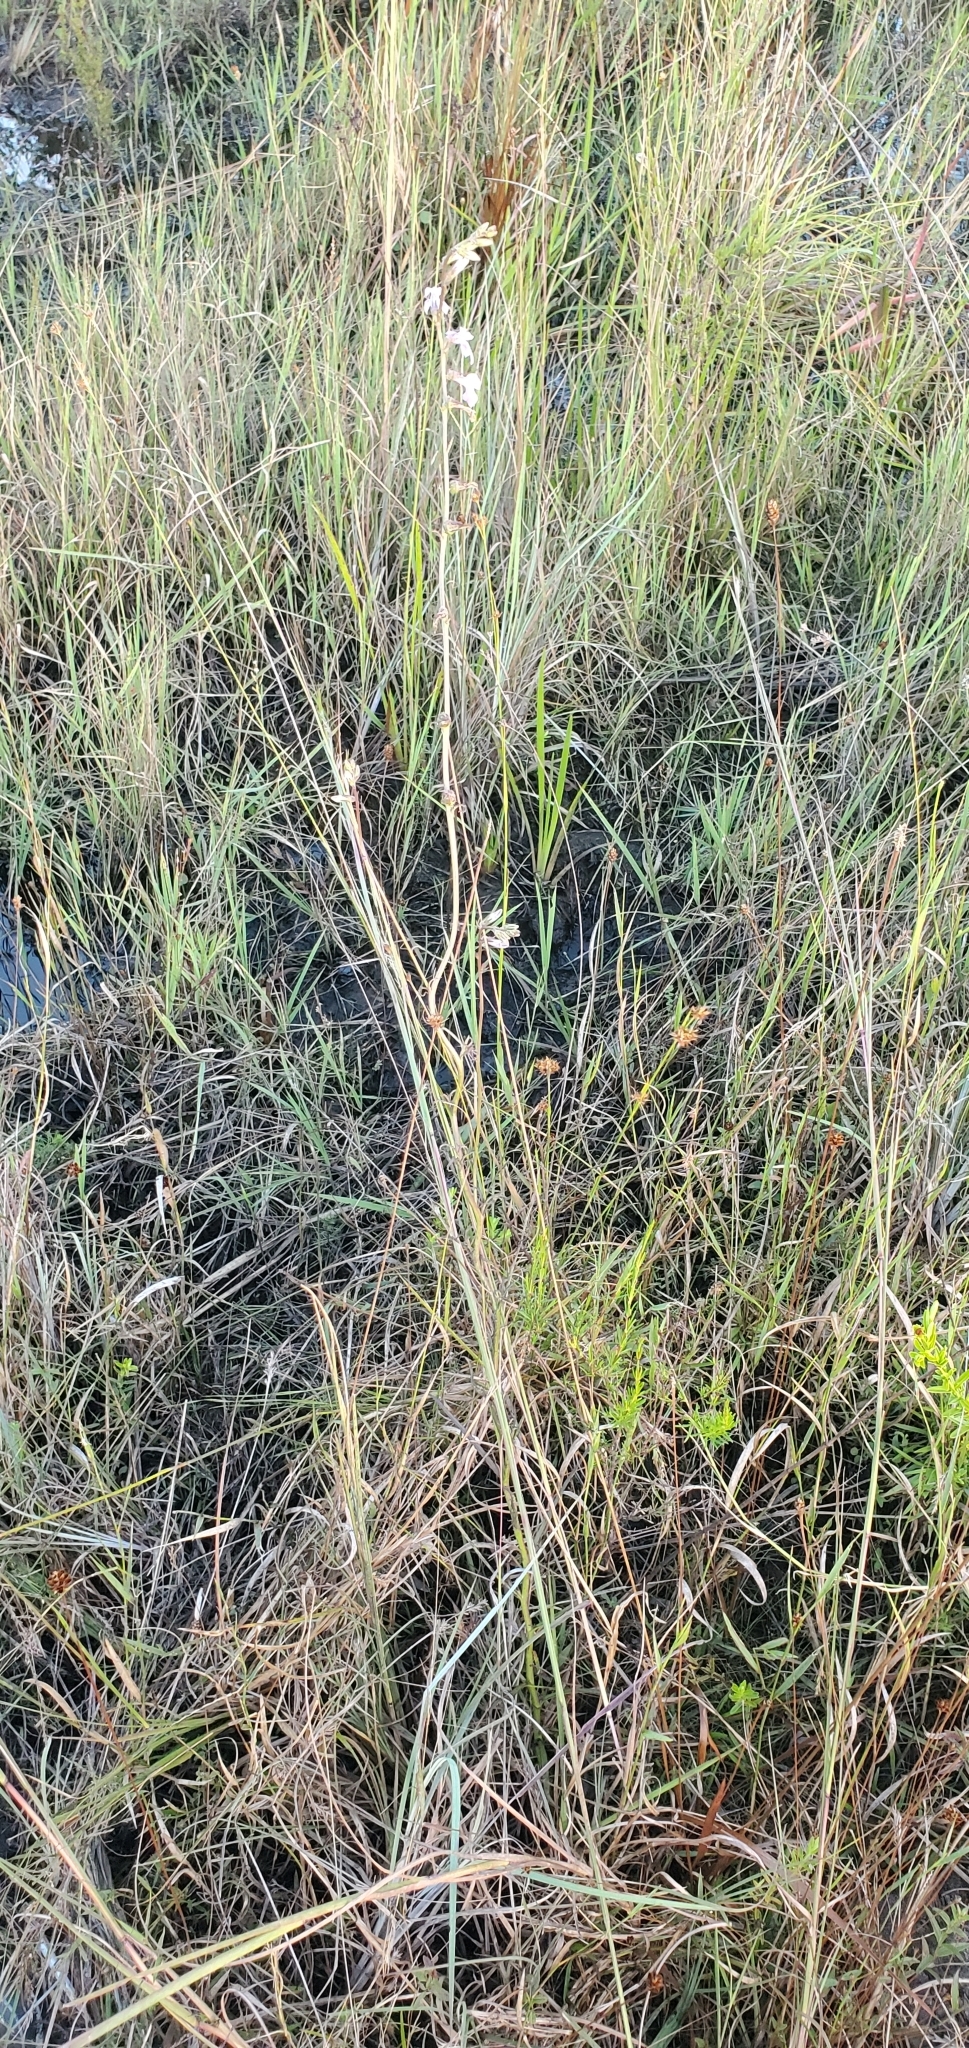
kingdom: Plantae
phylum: Tracheophyta
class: Magnoliopsida
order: Asterales
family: Campanulaceae
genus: Lobelia
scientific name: Lobelia glandulosa
